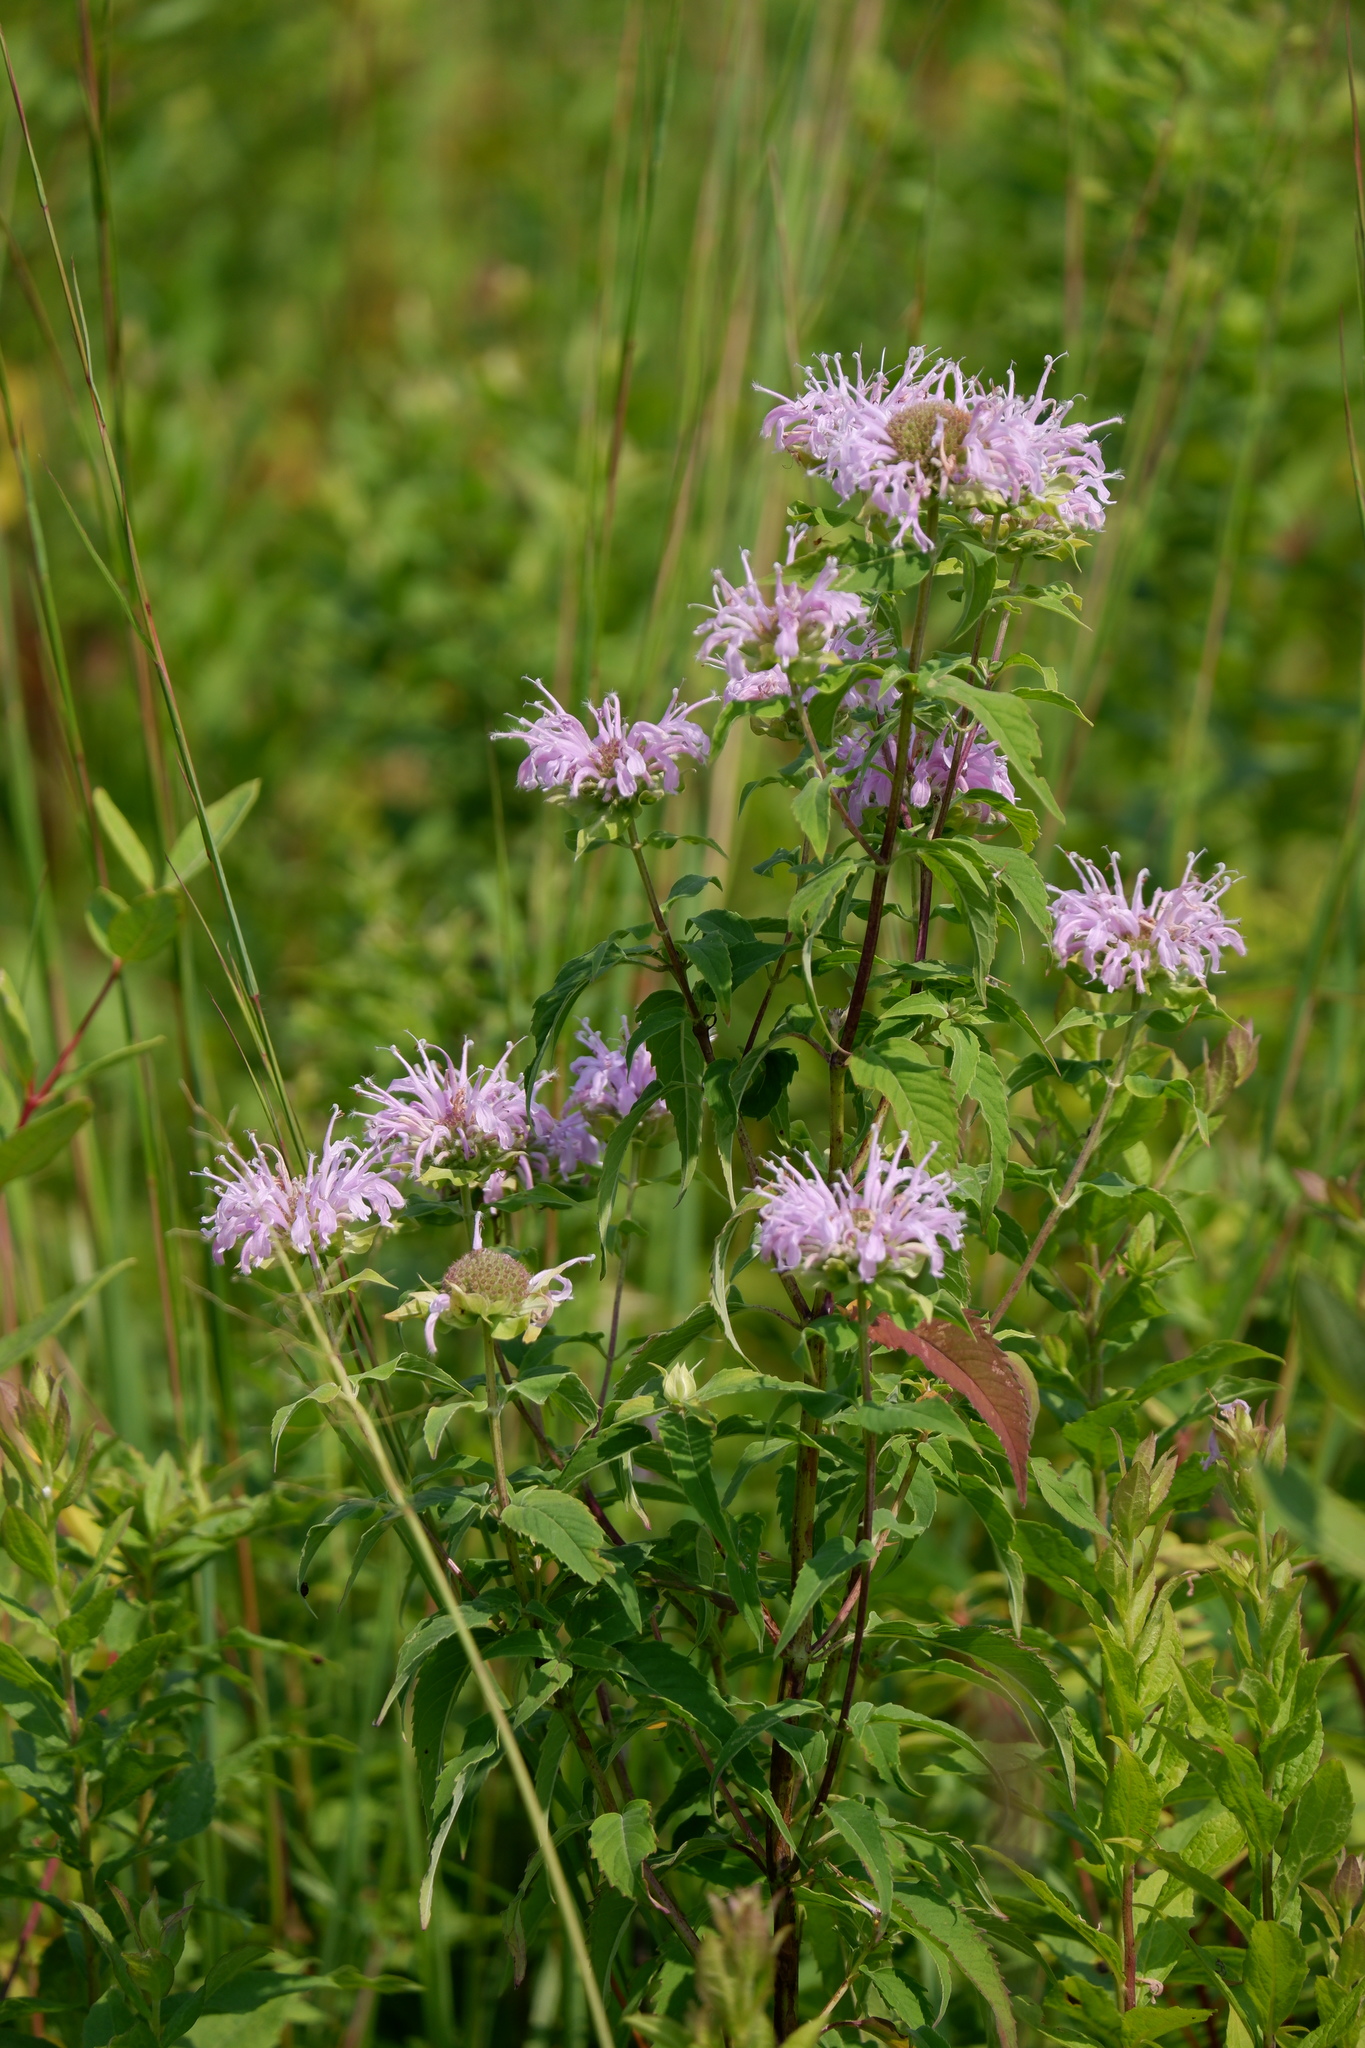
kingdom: Plantae
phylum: Tracheophyta
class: Magnoliopsida
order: Lamiales
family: Lamiaceae
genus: Monarda
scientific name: Monarda fistulosa
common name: Purple beebalm
